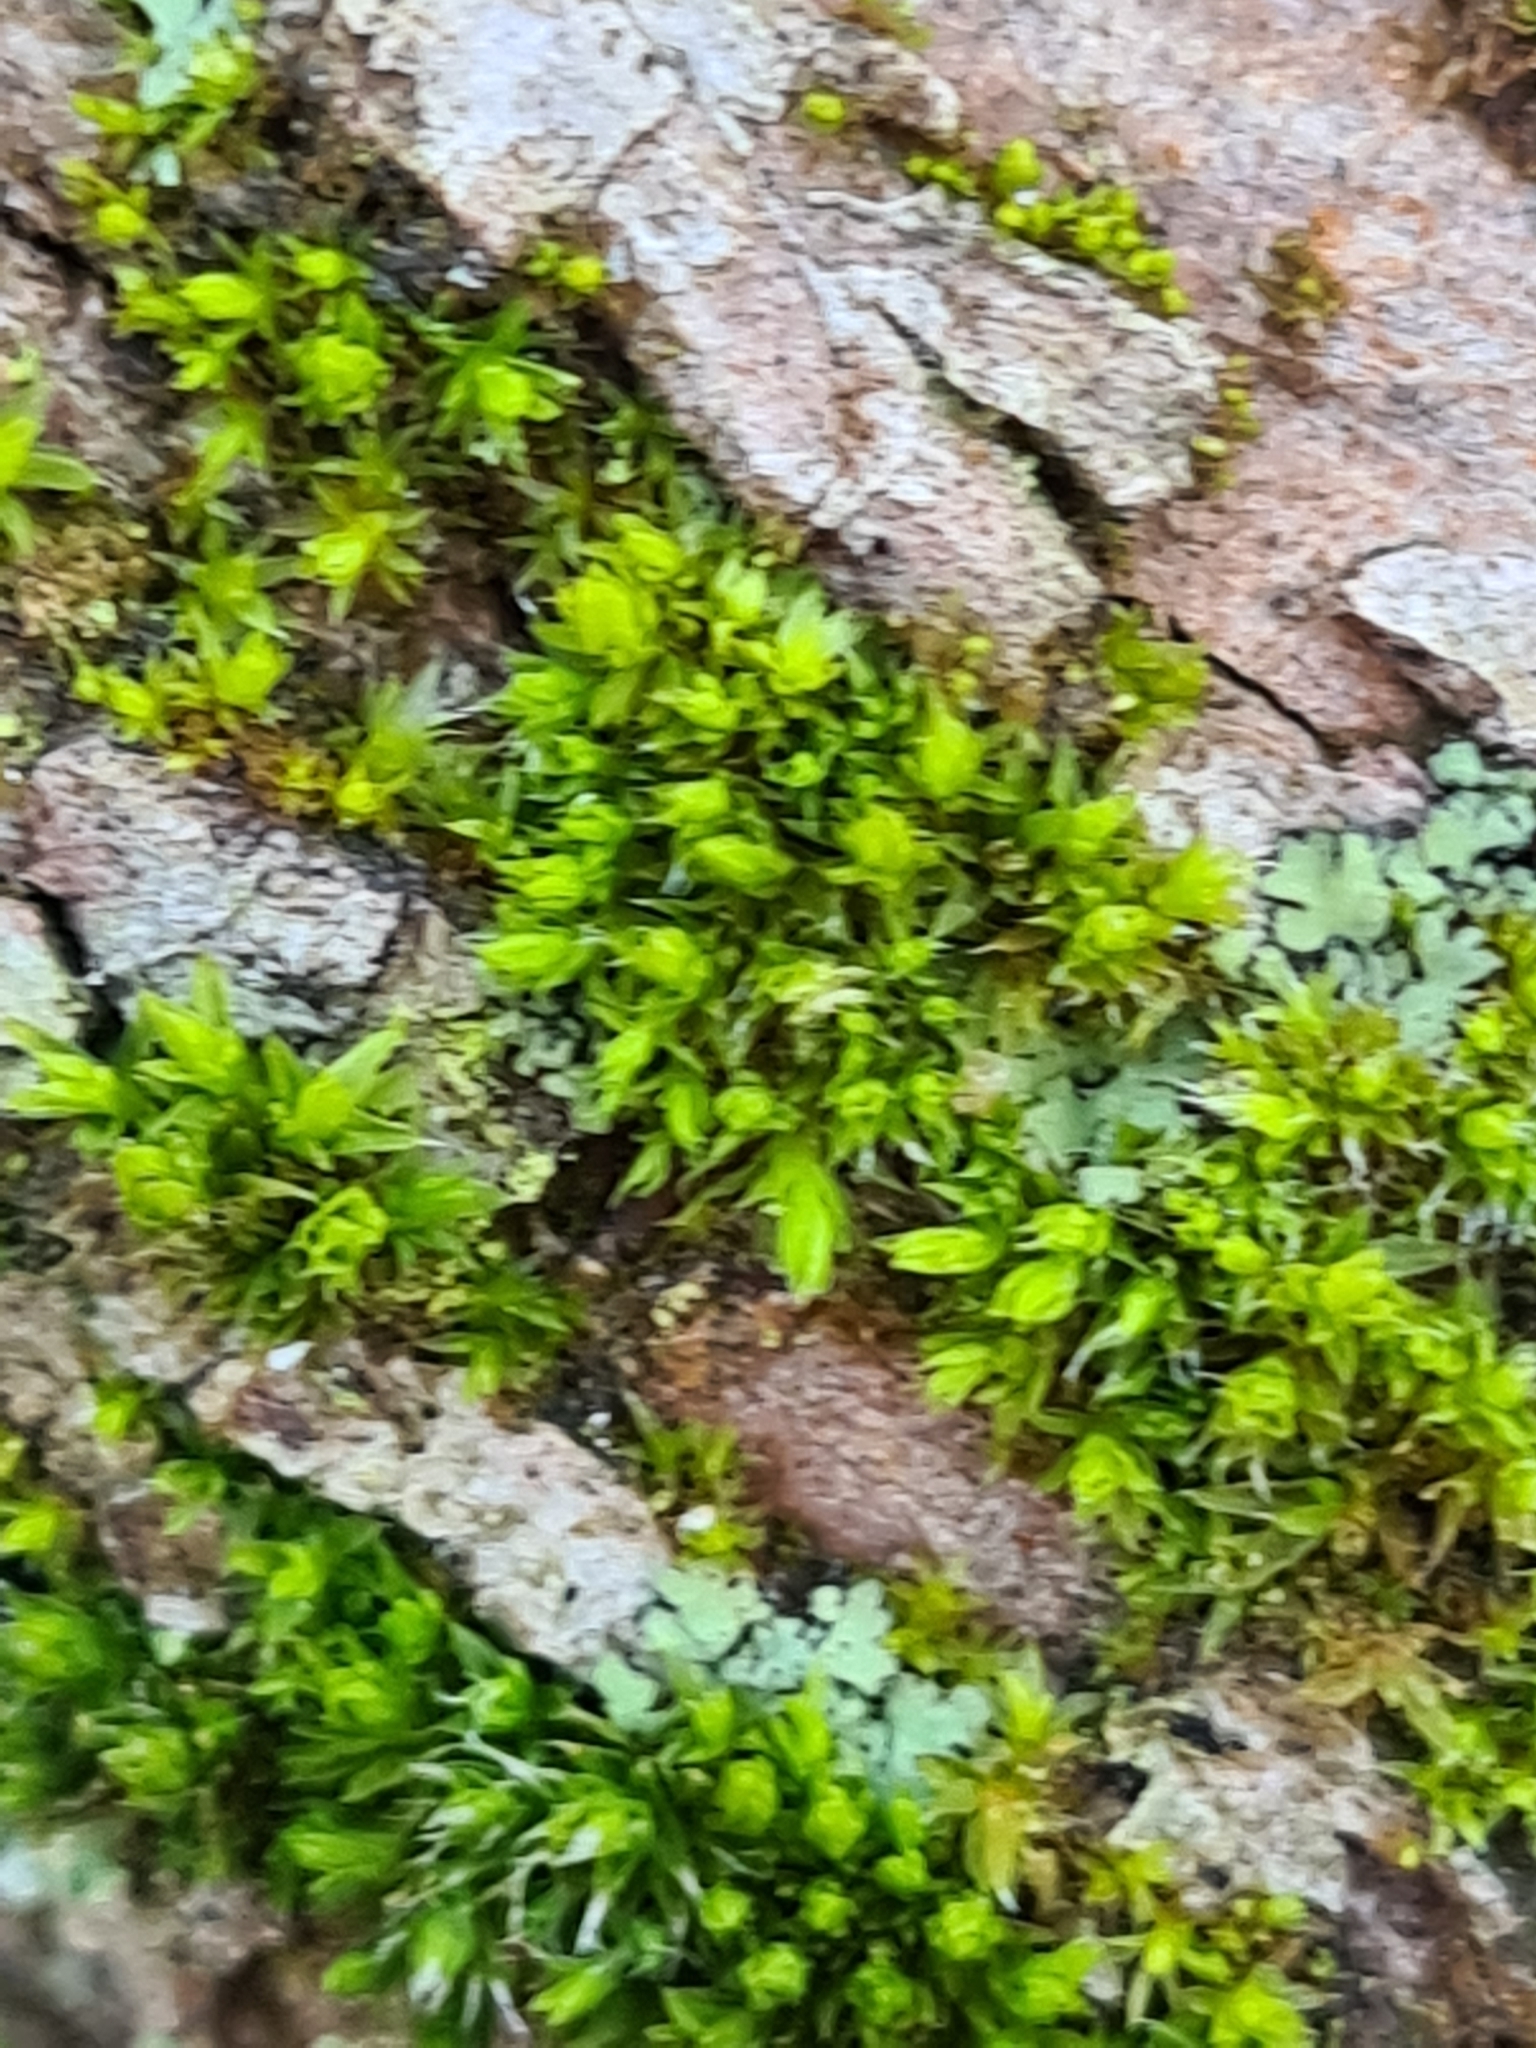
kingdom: Plantae
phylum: Bryophyta
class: Bryopsida
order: Orthotrichales
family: Orthotrichaceae
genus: Orthotrichum
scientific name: Orthotrichum diaphanum
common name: White-tipped bristle-moss
